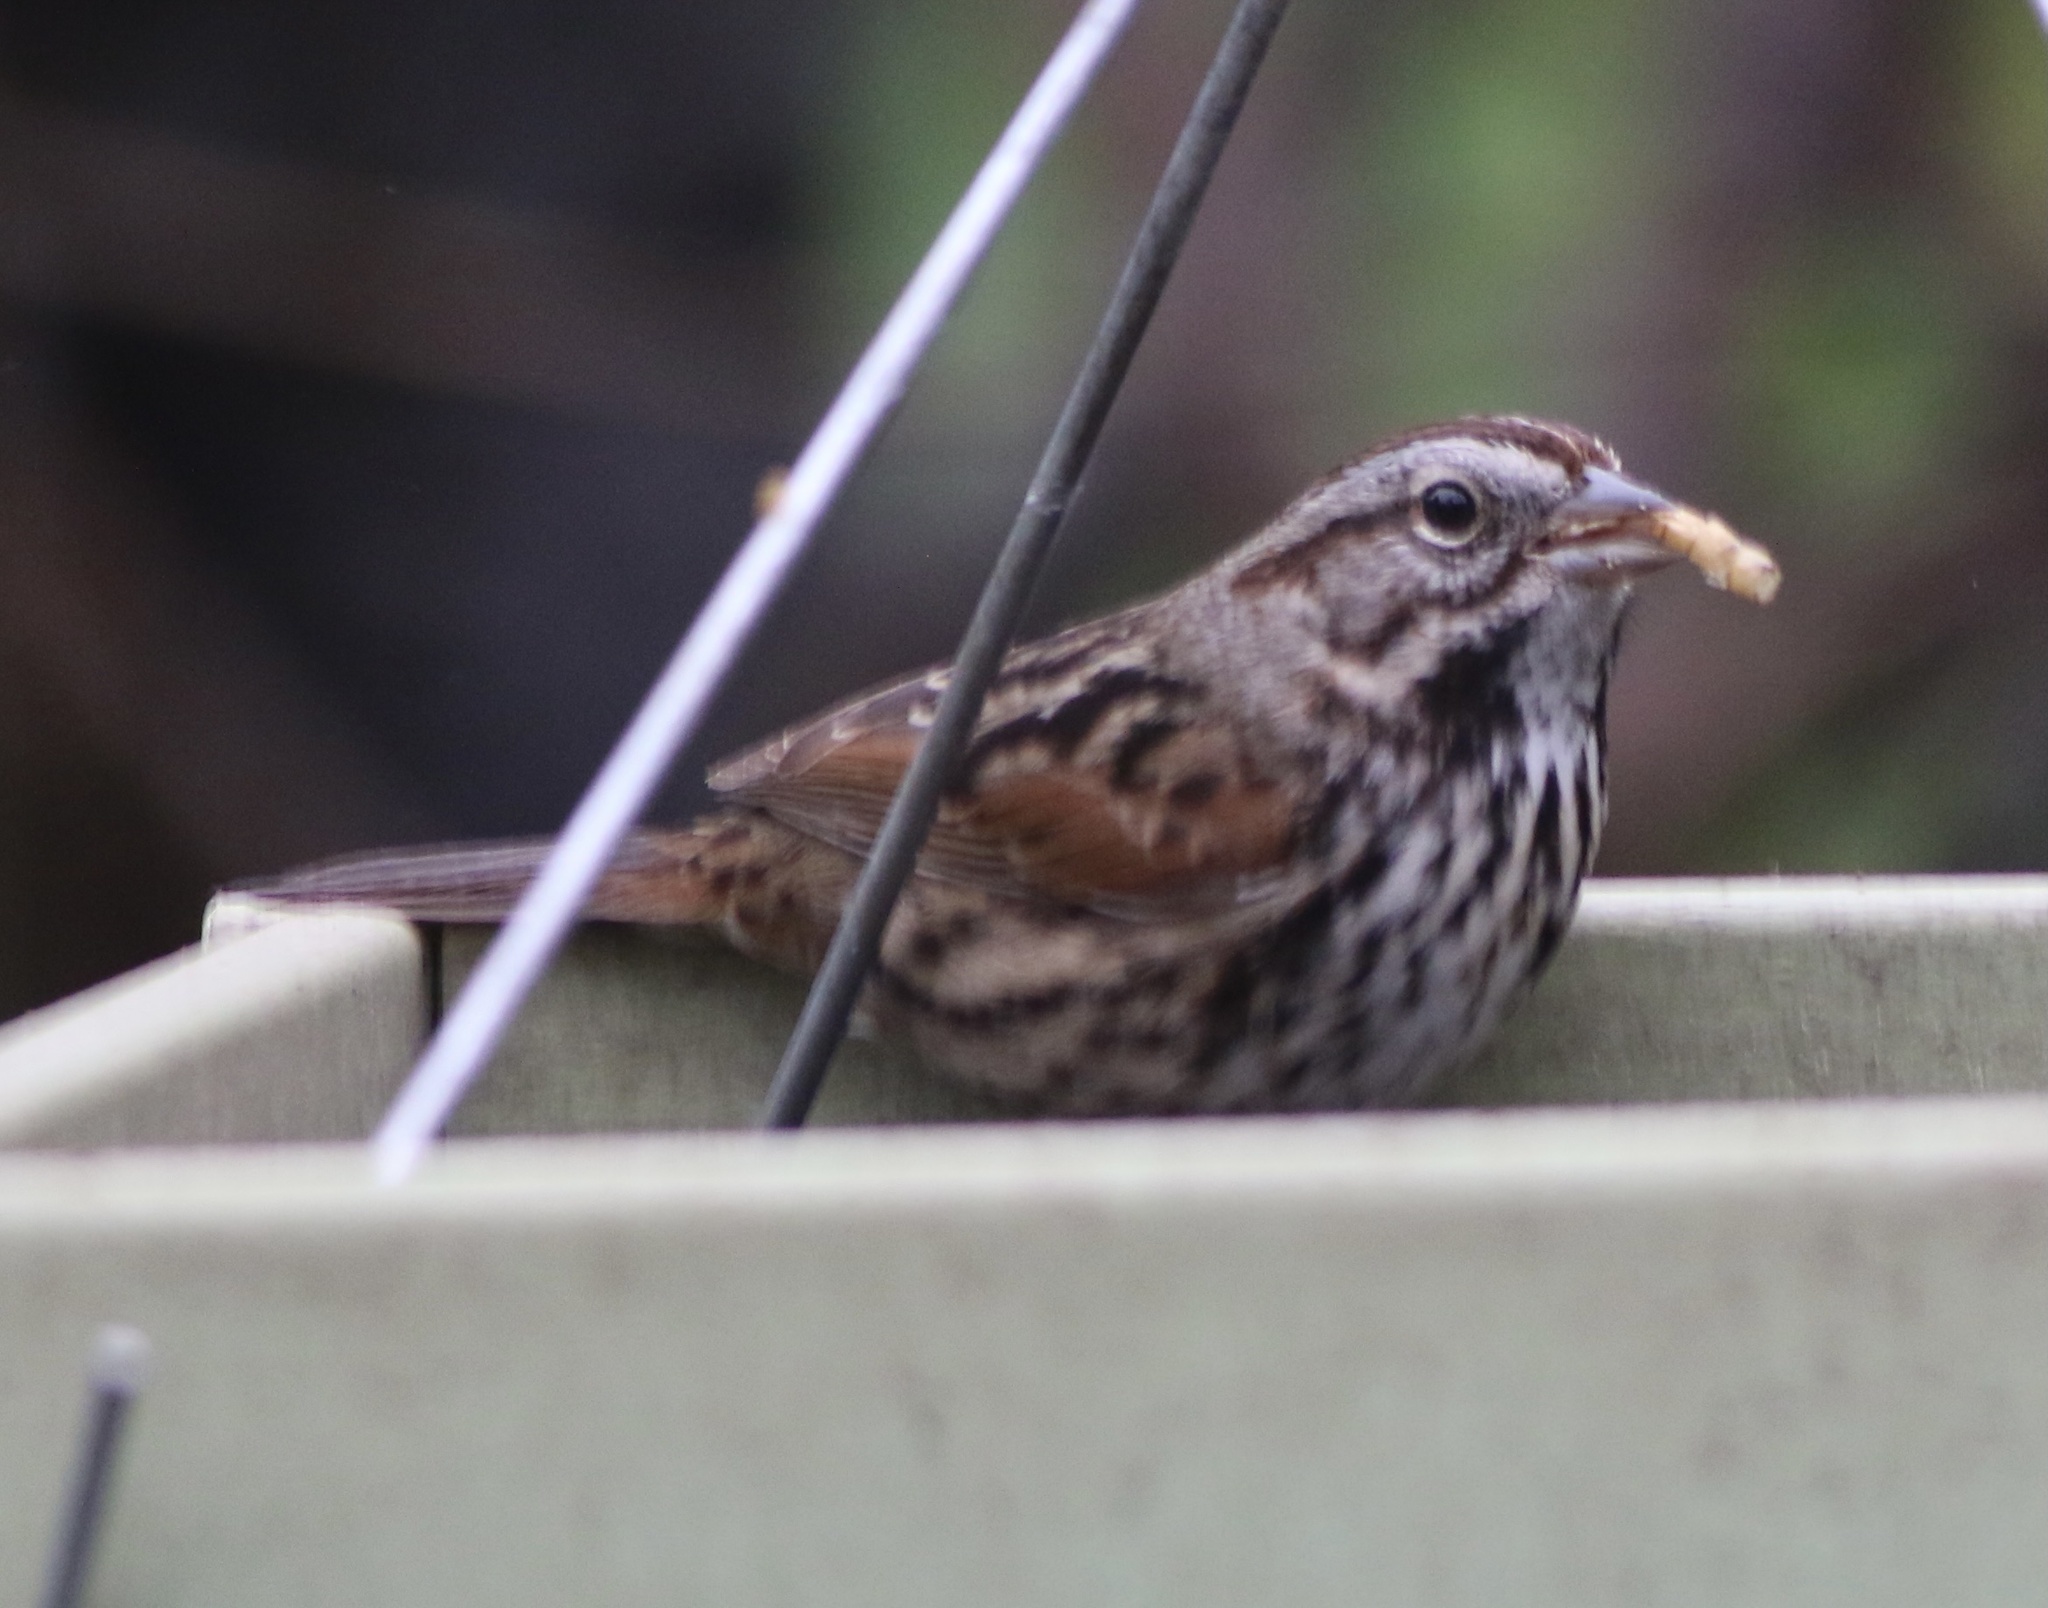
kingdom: Animalia
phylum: Chordata
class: Aves
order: Passeriformes
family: Passerellidae
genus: Melospiza
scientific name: Melospiza melodia
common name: Song sparrow
